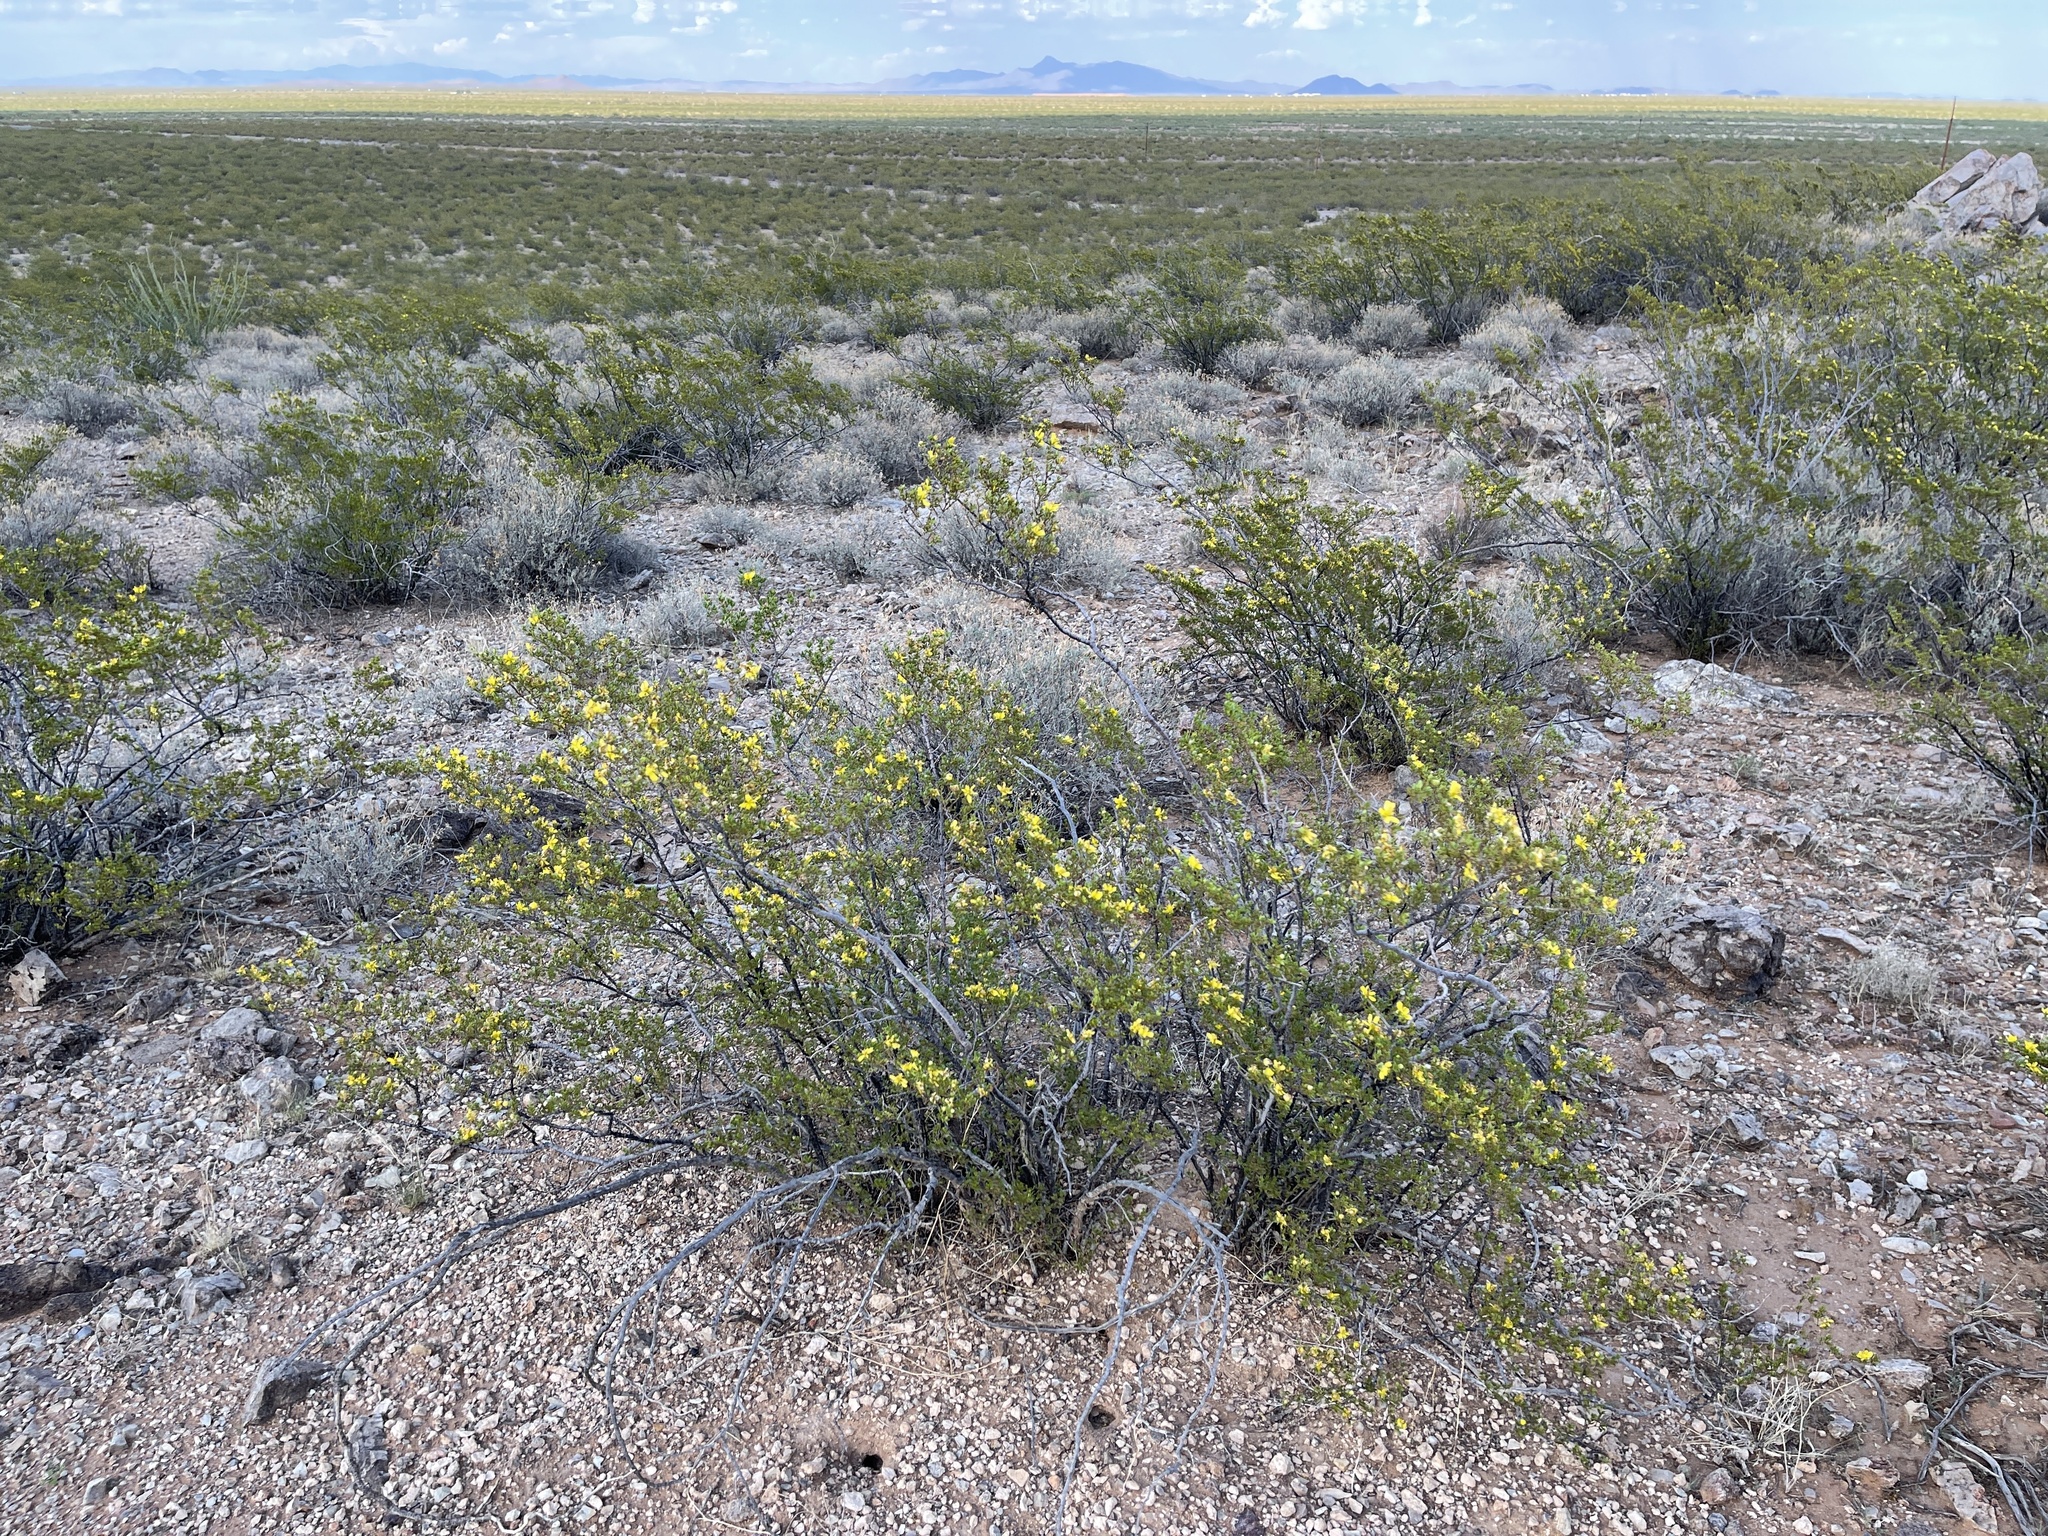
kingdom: Plantae
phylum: Tracheophyta
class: Magnoliopsida
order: Zygophyllales
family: Zygophyllaceae
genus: Larrea
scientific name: Larrea tridentata
